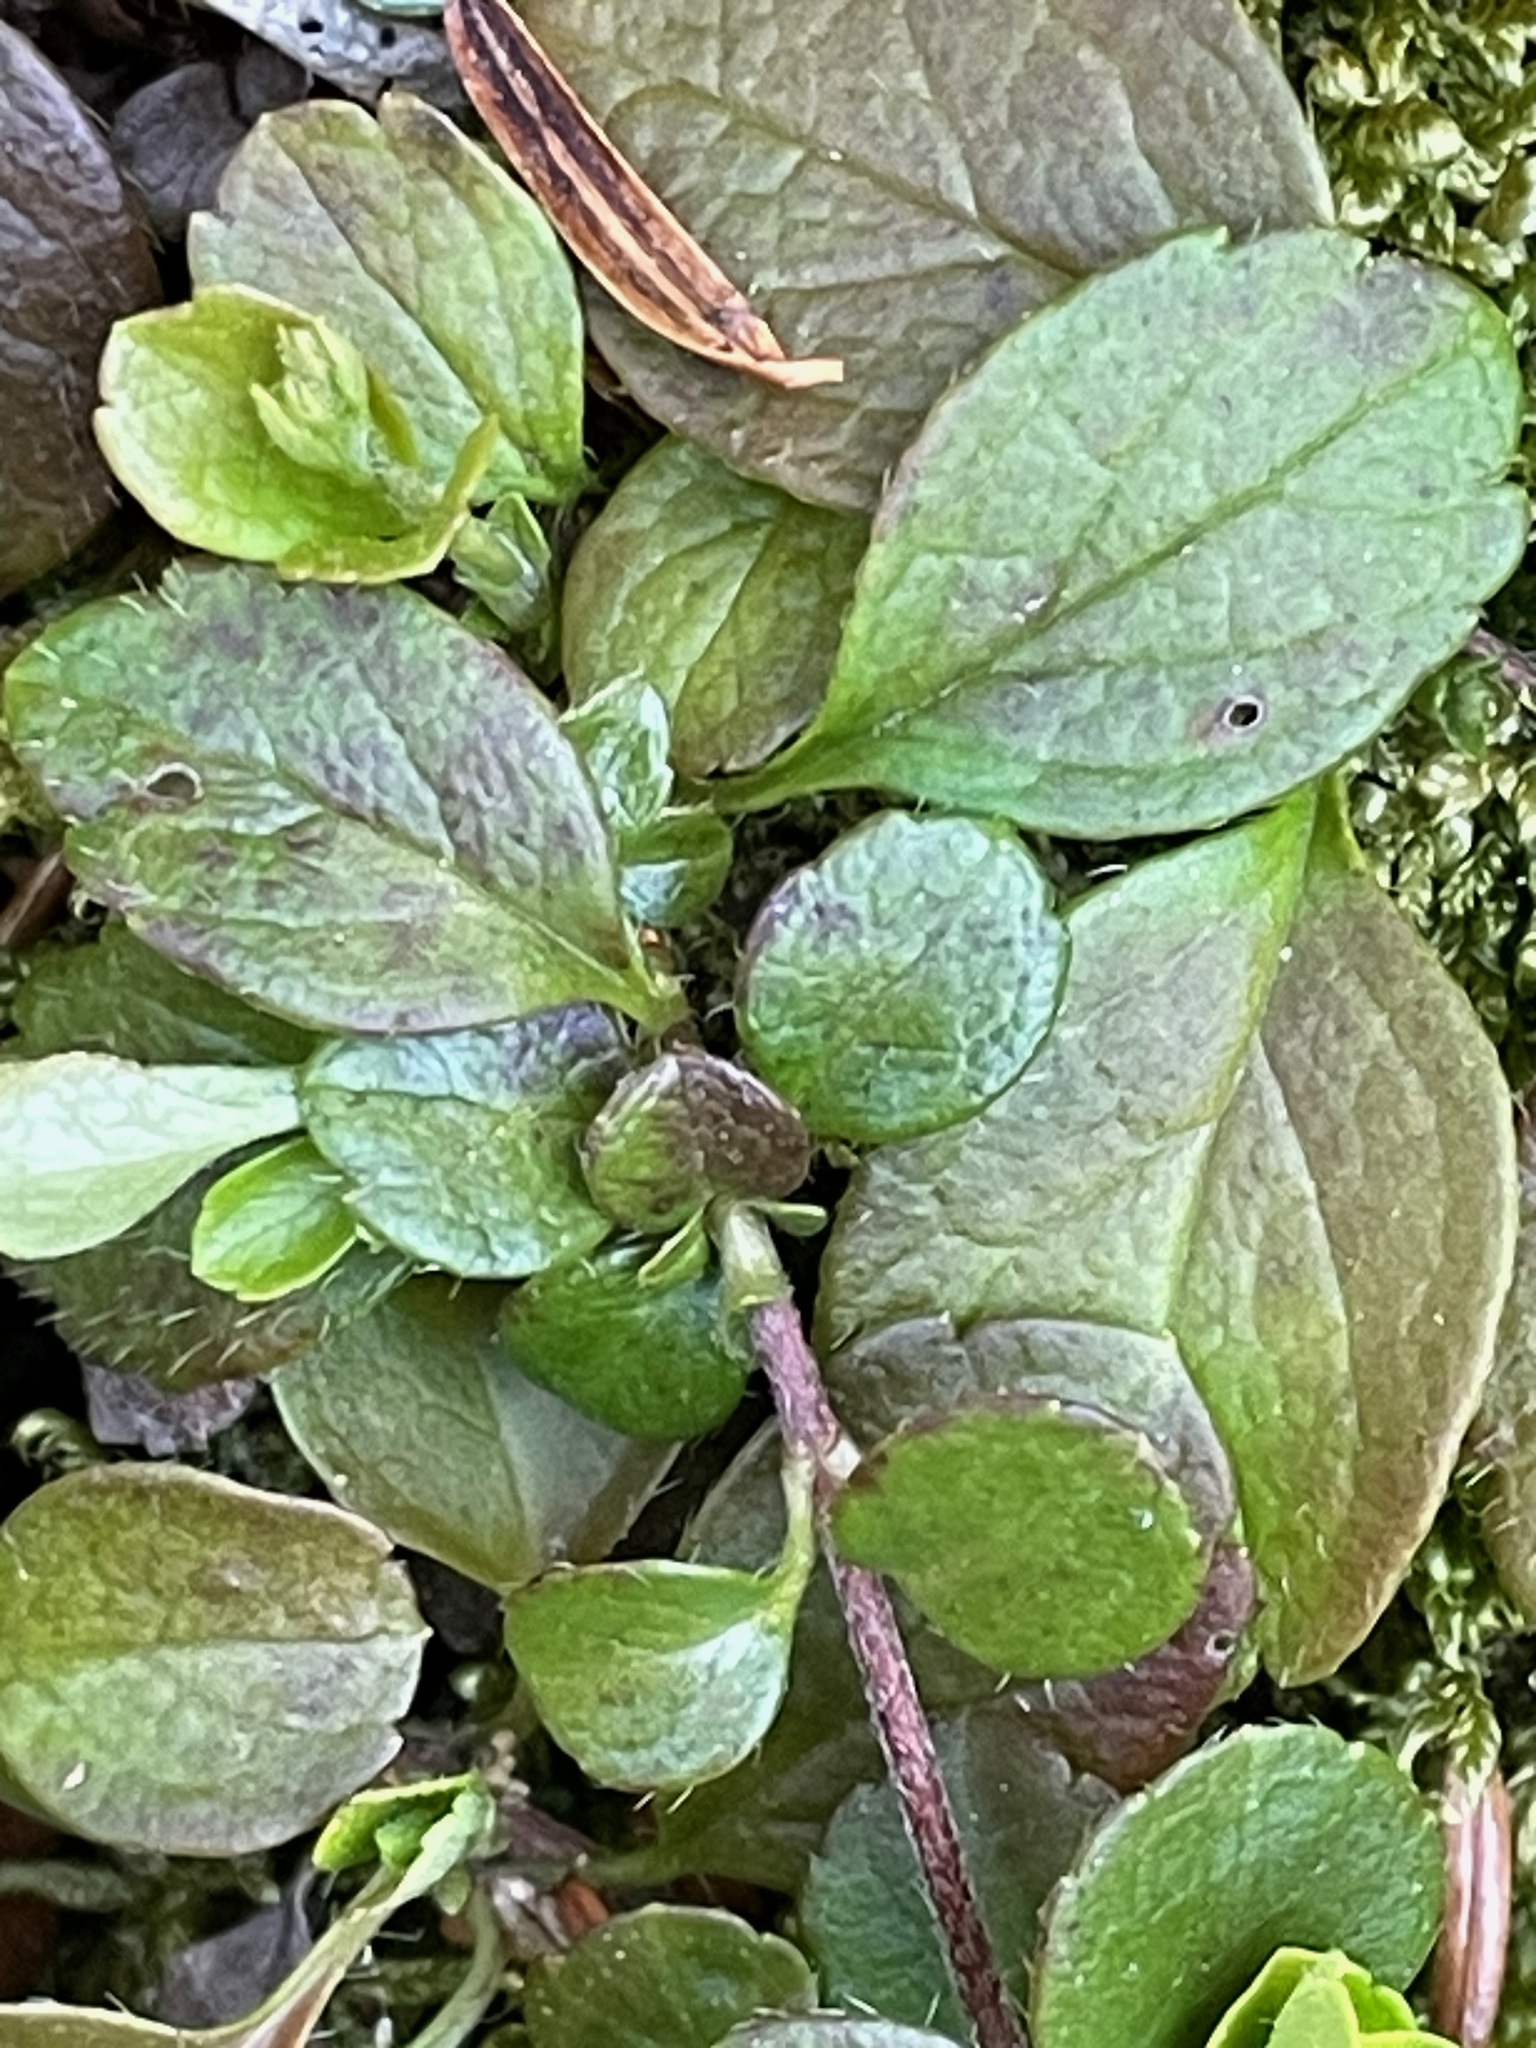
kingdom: Plantae
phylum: Tracheophyta
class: Magnoliopsida
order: Dipsacales
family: Caprifoliaceae
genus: Linnaea
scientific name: Linnaea borealis
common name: Twinflower
